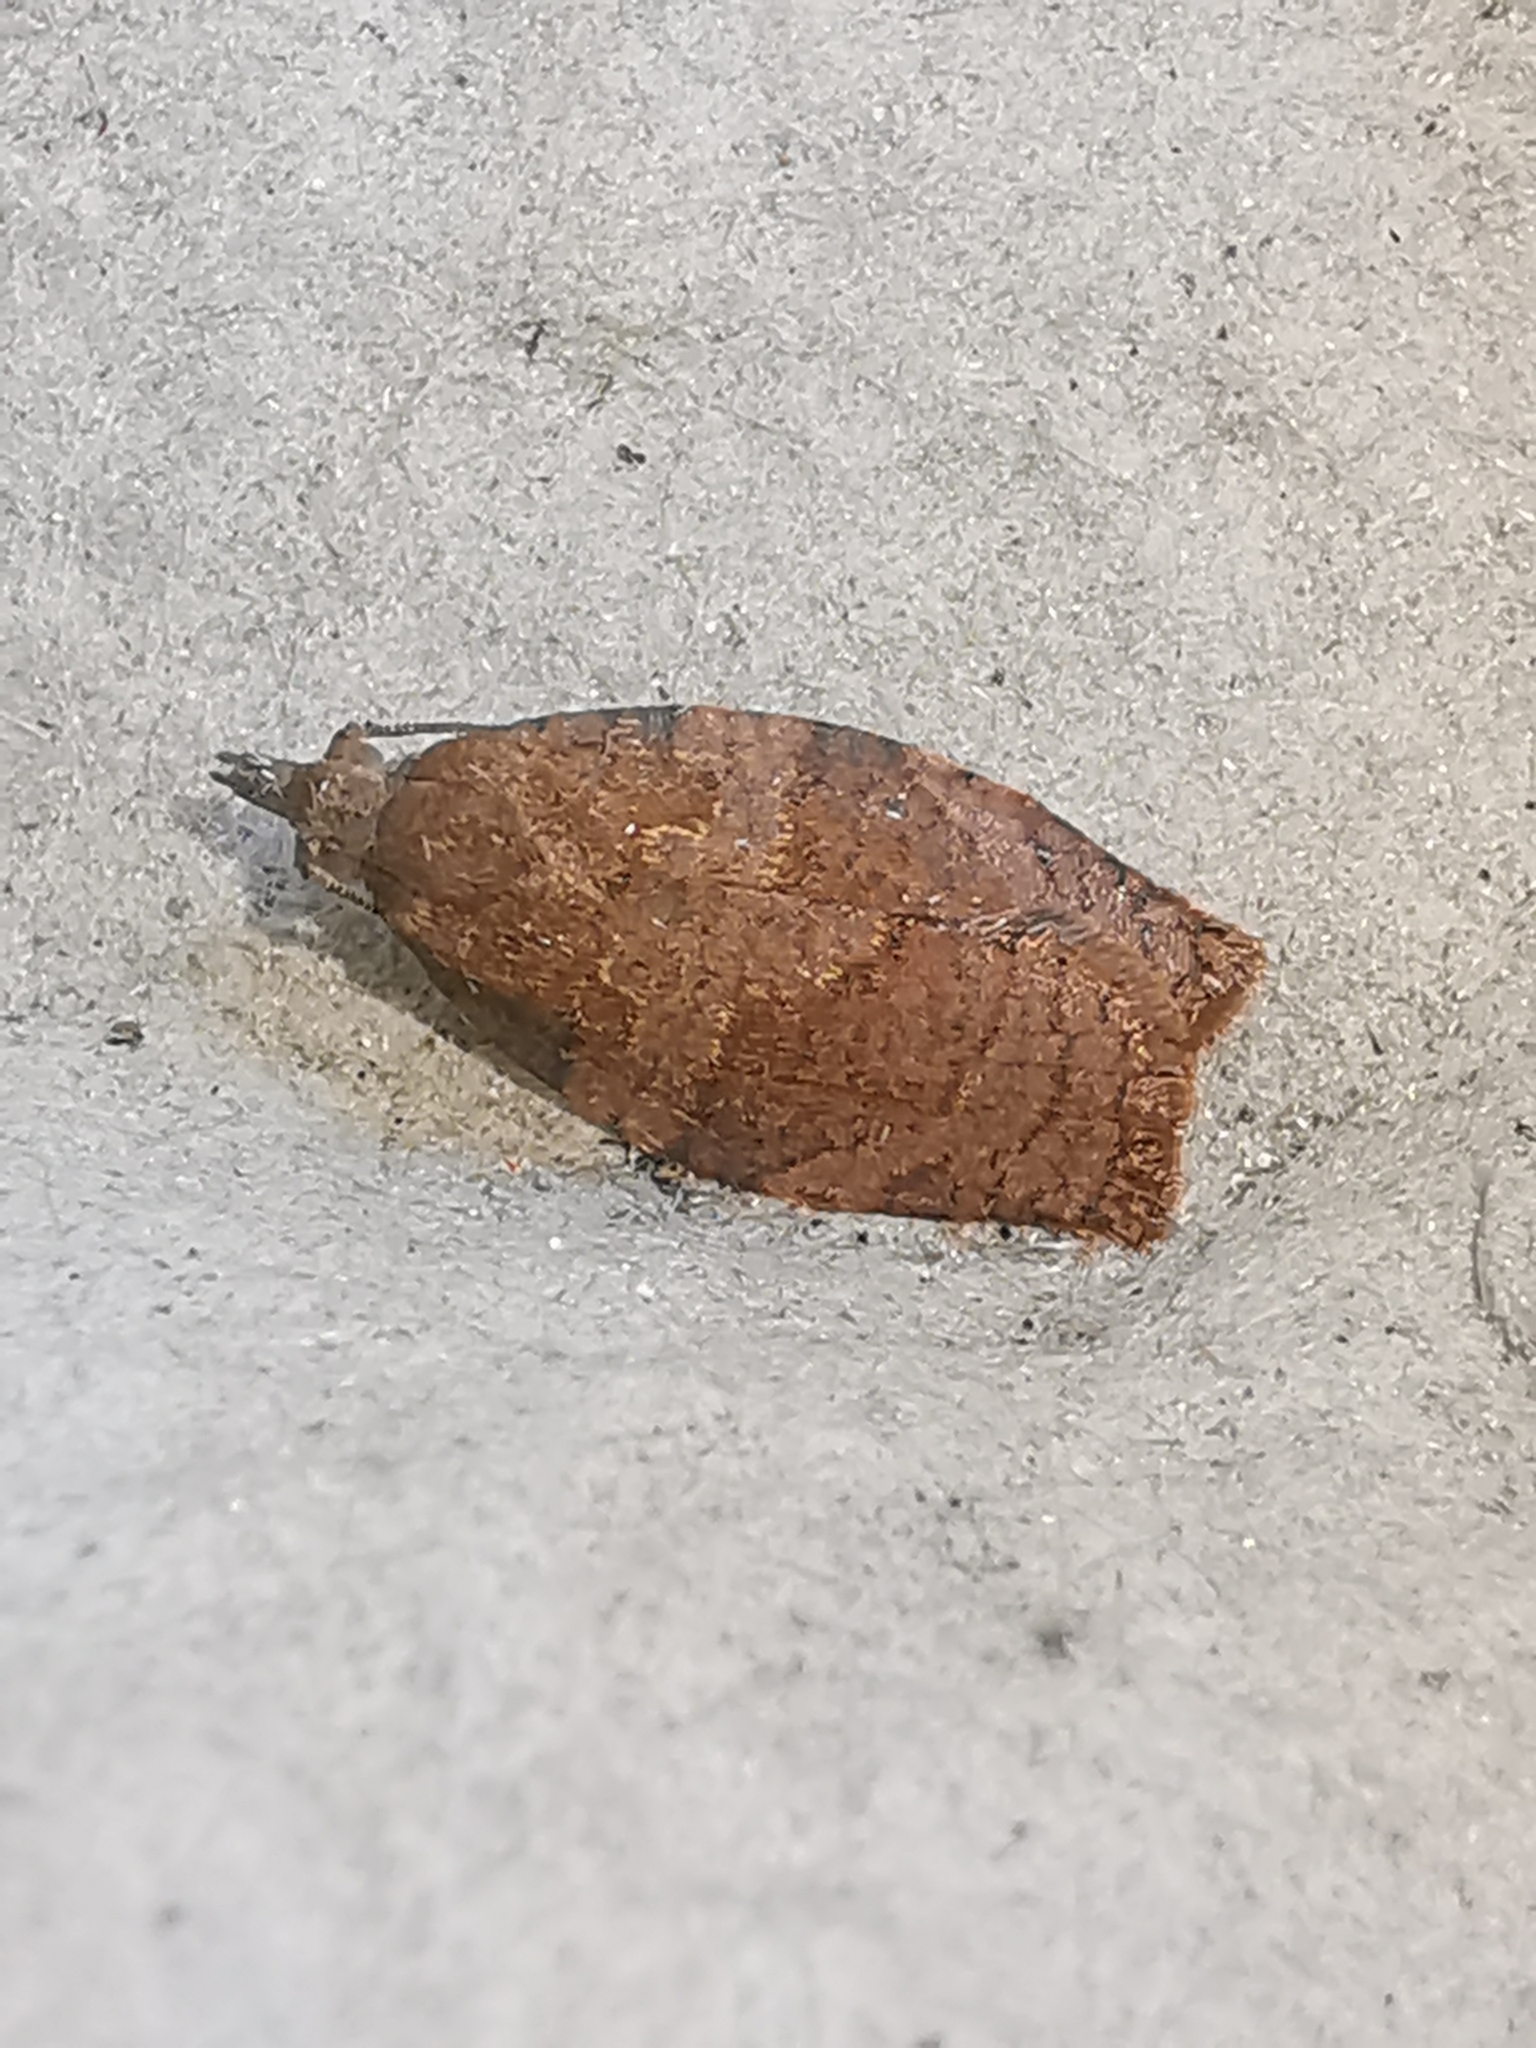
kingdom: Animalia
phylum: Arthropoda
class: Insecta
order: Lepidoptera
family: Tortricidae
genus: Pandemis
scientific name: Pandemis heparana
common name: Dark fruit-tree tortrix
